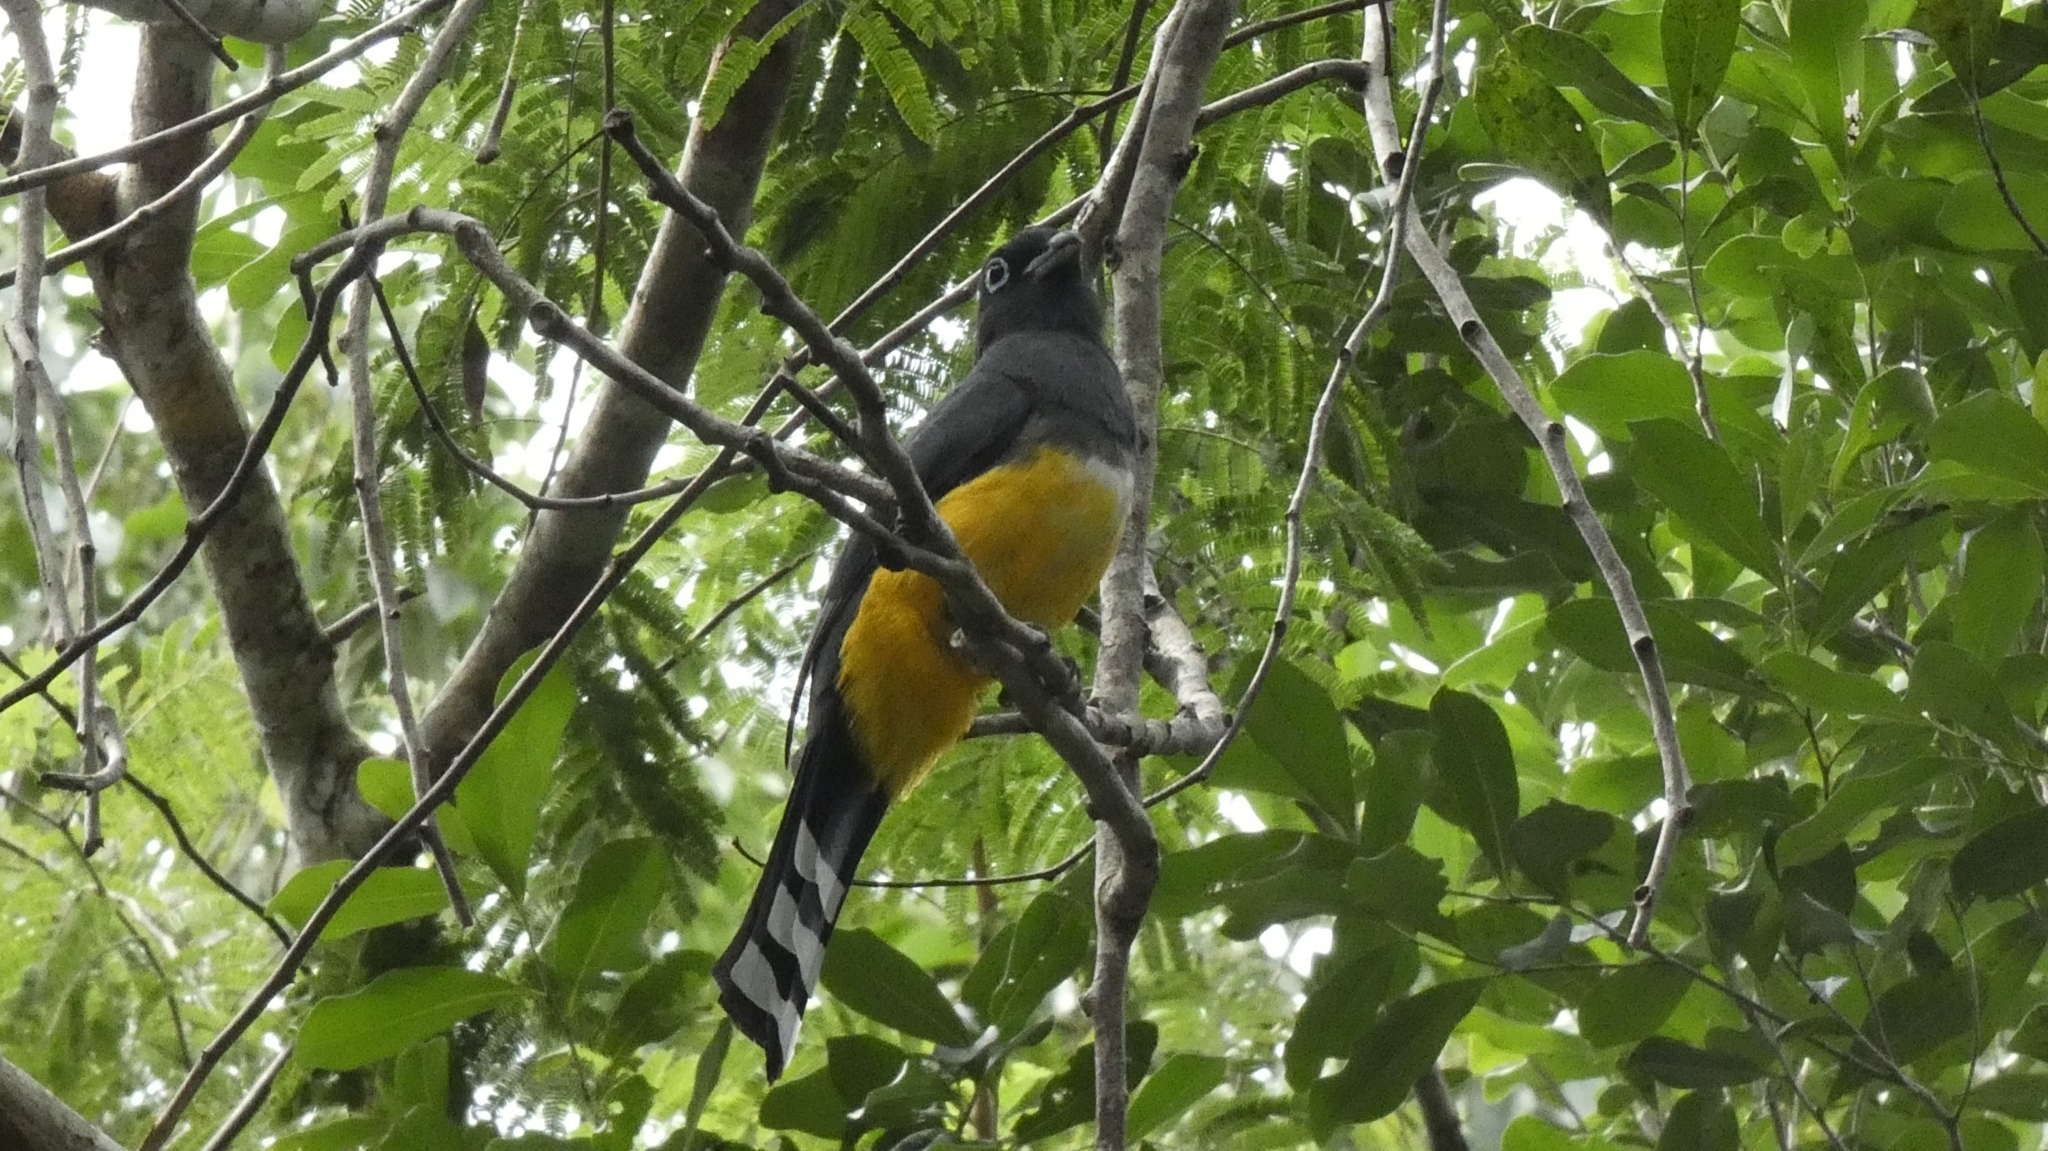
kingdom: Animalia
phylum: Chordata
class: Aves
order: Trogoniformes
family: Trogonidae
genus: Trogon
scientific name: Trogon melanocephalus
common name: Black-headed trogon
